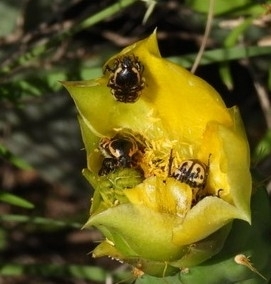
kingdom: Animalia
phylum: Arthropoda
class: Insecta
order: Coleoptera
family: Scarabaeidae
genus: Euphoria
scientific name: Euphoria kernii
